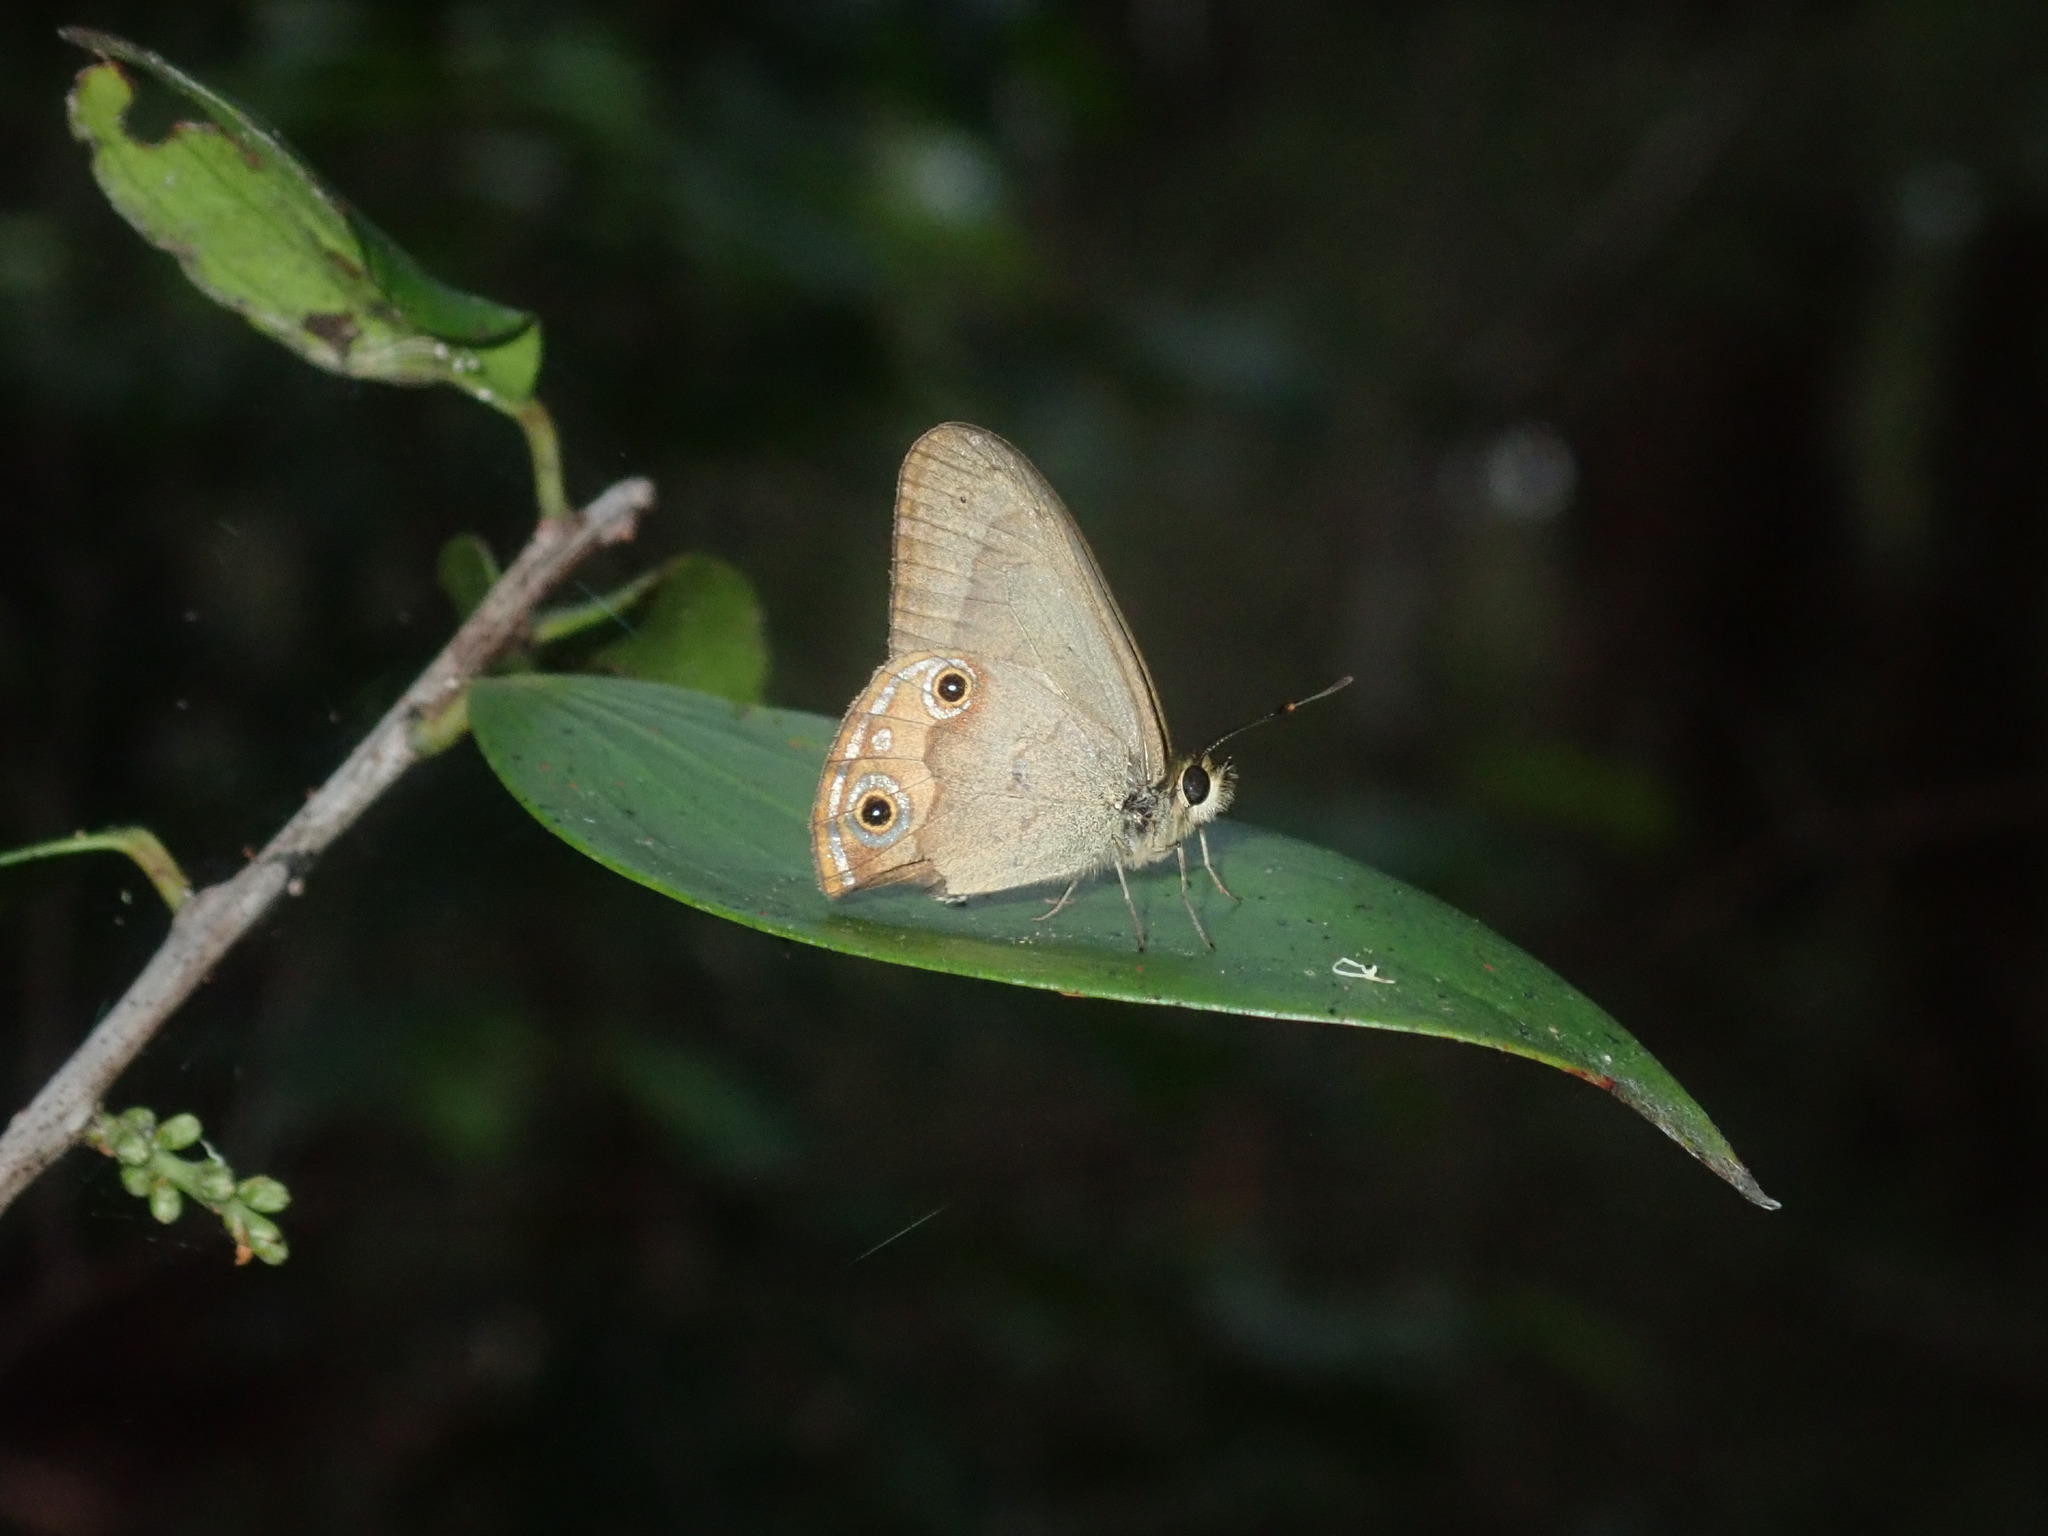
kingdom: Animalia
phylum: Arthropoda
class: Insecta
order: Lepidoptera
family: Nymphalidae
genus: Hypocysta
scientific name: Hypocysta metirius
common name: Brown ringlet
